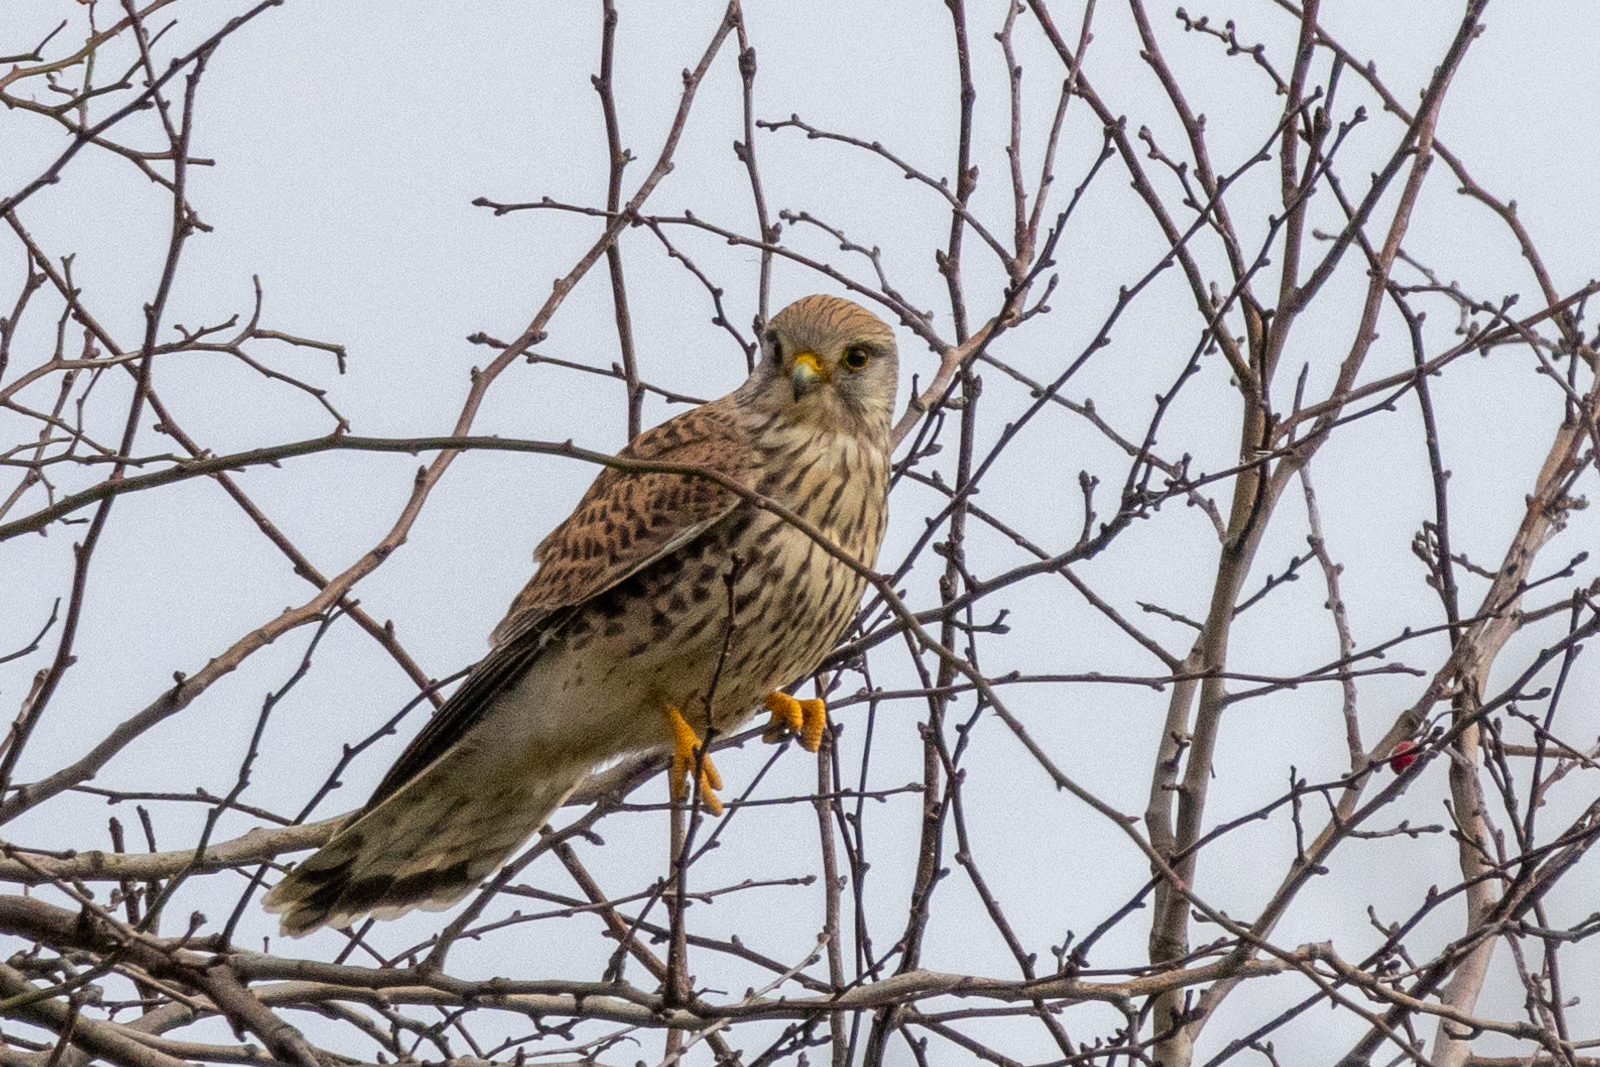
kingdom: Animalia
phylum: Chordata
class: Aves
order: Falconiformes
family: Falconidae
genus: Falco
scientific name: Falco tinnunculus
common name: Common kestrel
